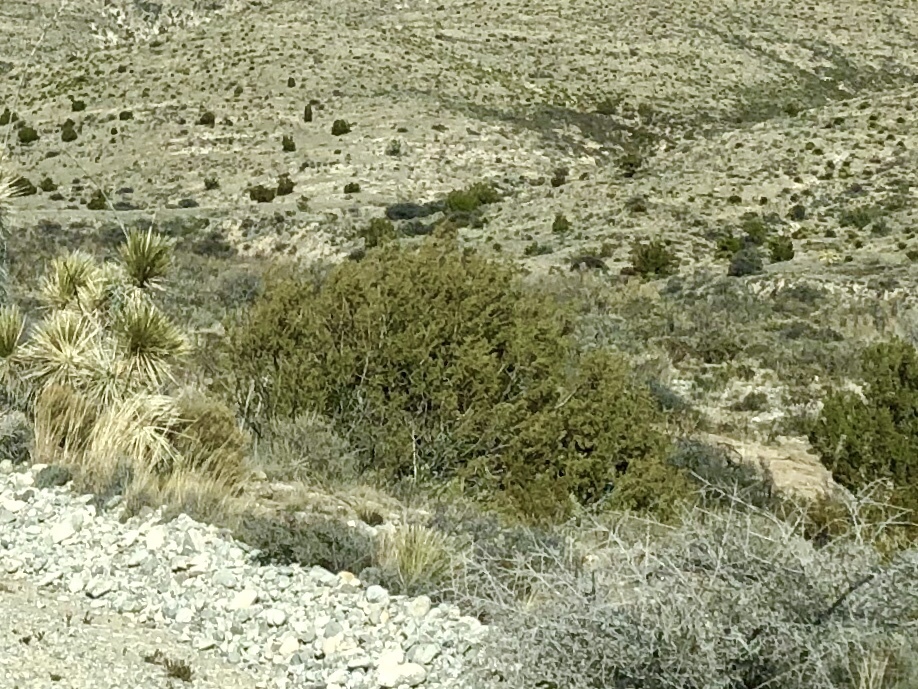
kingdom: Plantae
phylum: Tracheophyta
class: Magnoliopsida
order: Zygophyllales
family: Zygophyllaceae
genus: Larrea
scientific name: Larrea tridentata
